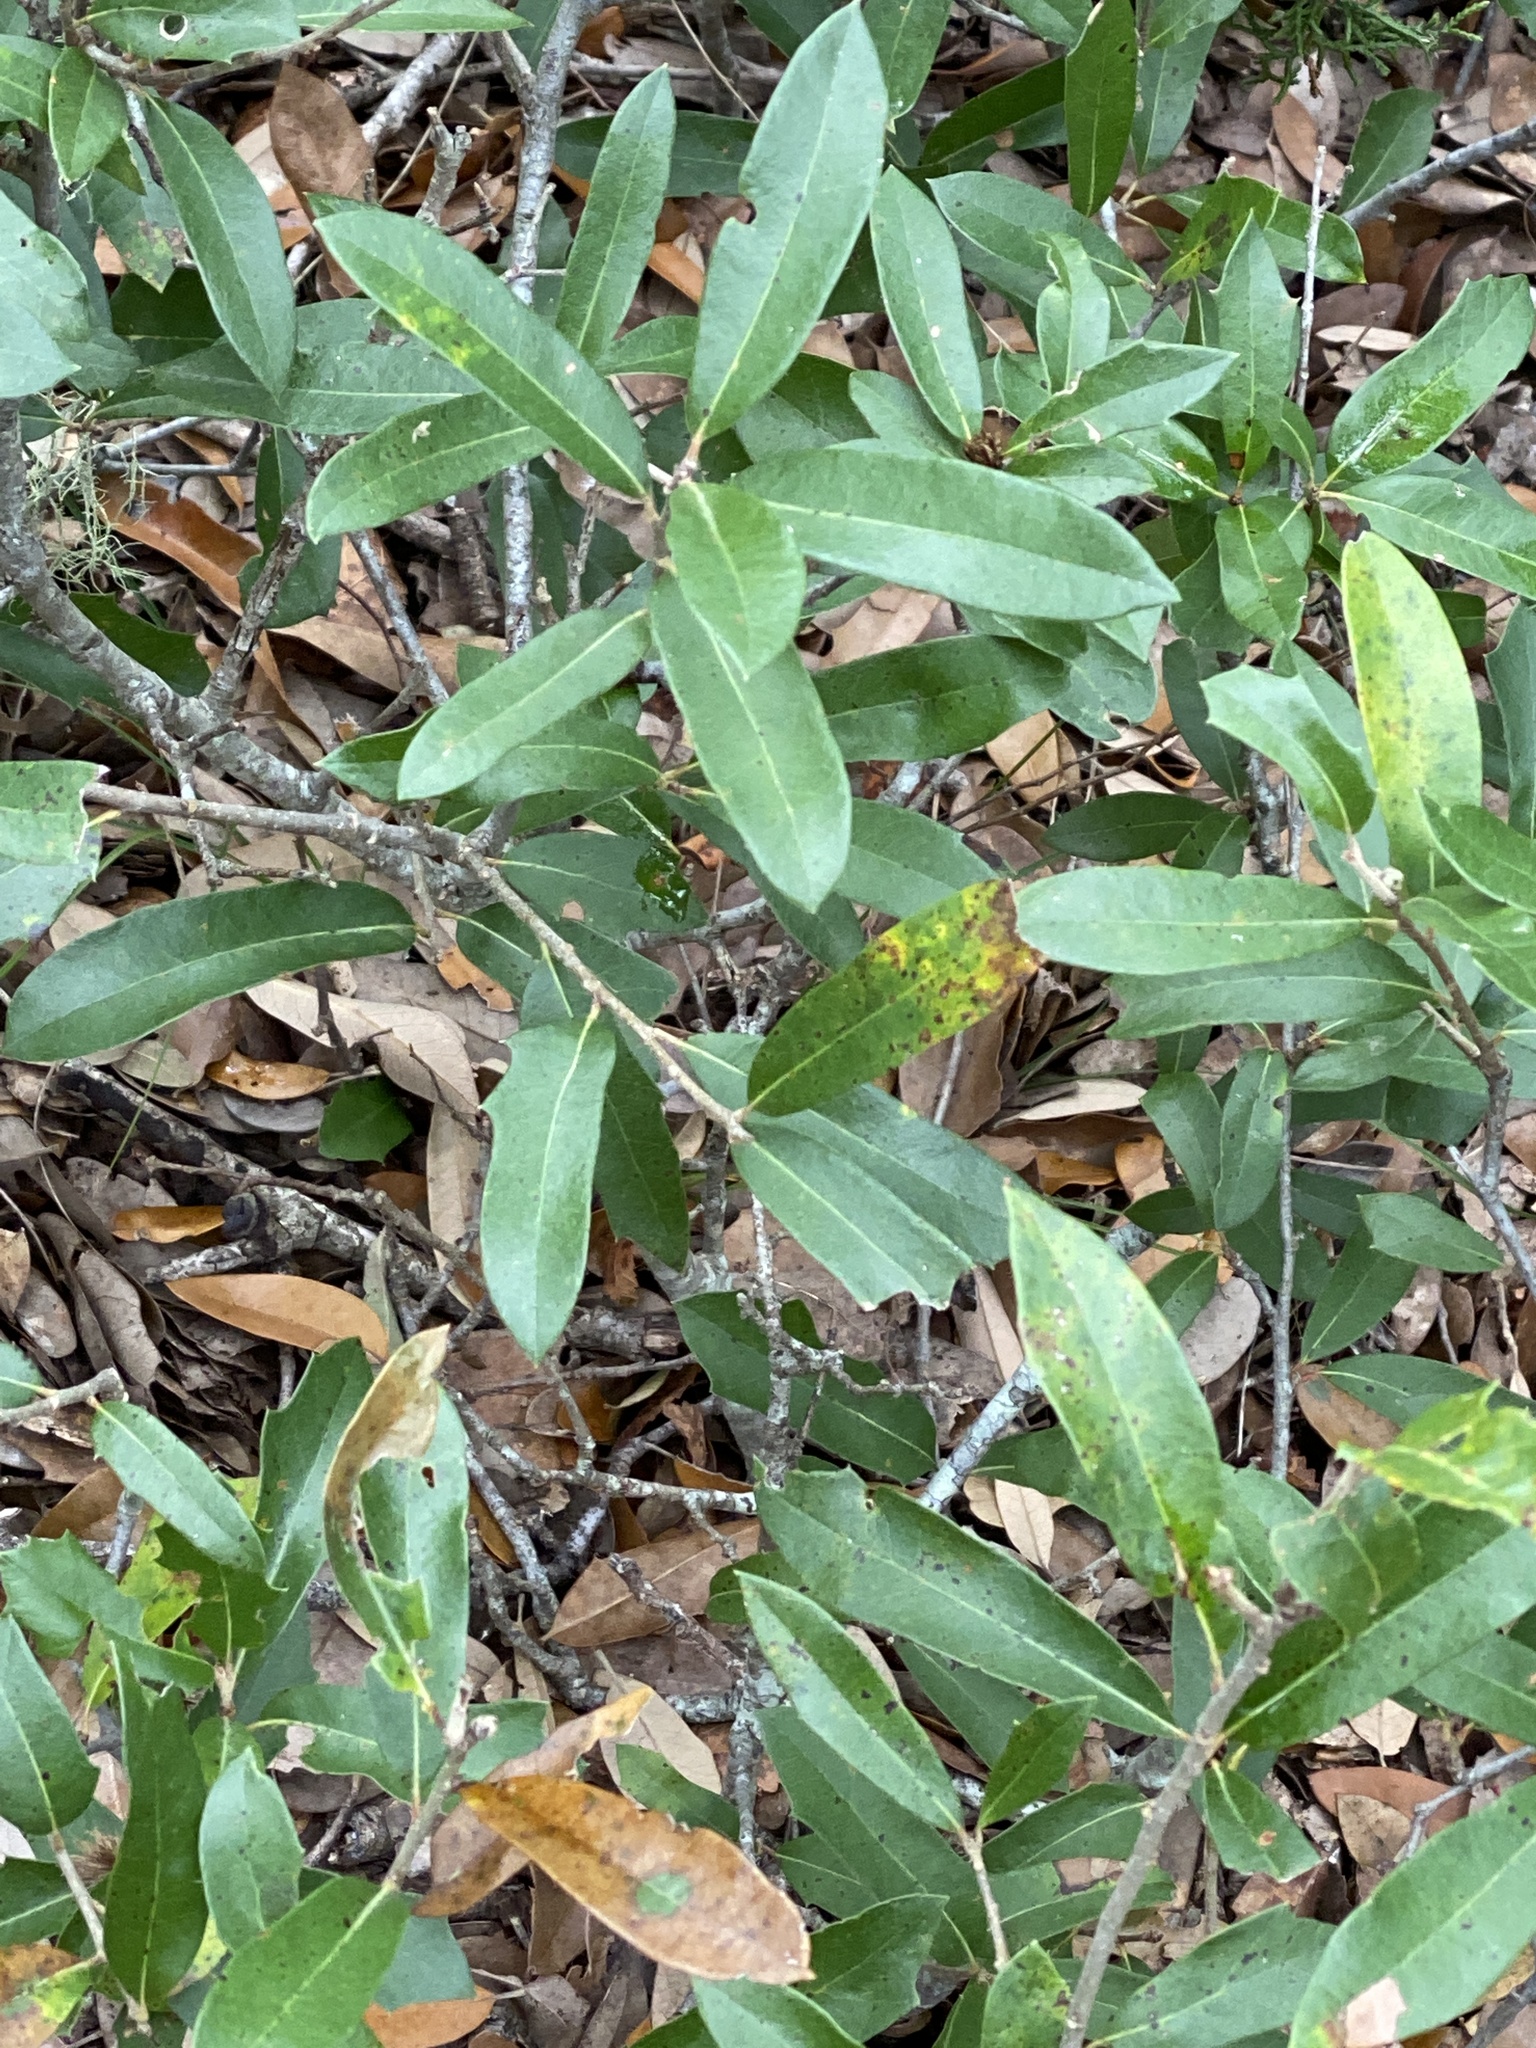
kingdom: Plantae
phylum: Tracheophyta
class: Magnoliopsida
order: Fagales
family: Fagaceae
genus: Quercus
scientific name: Quercus fusiformis
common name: Texas live oak
